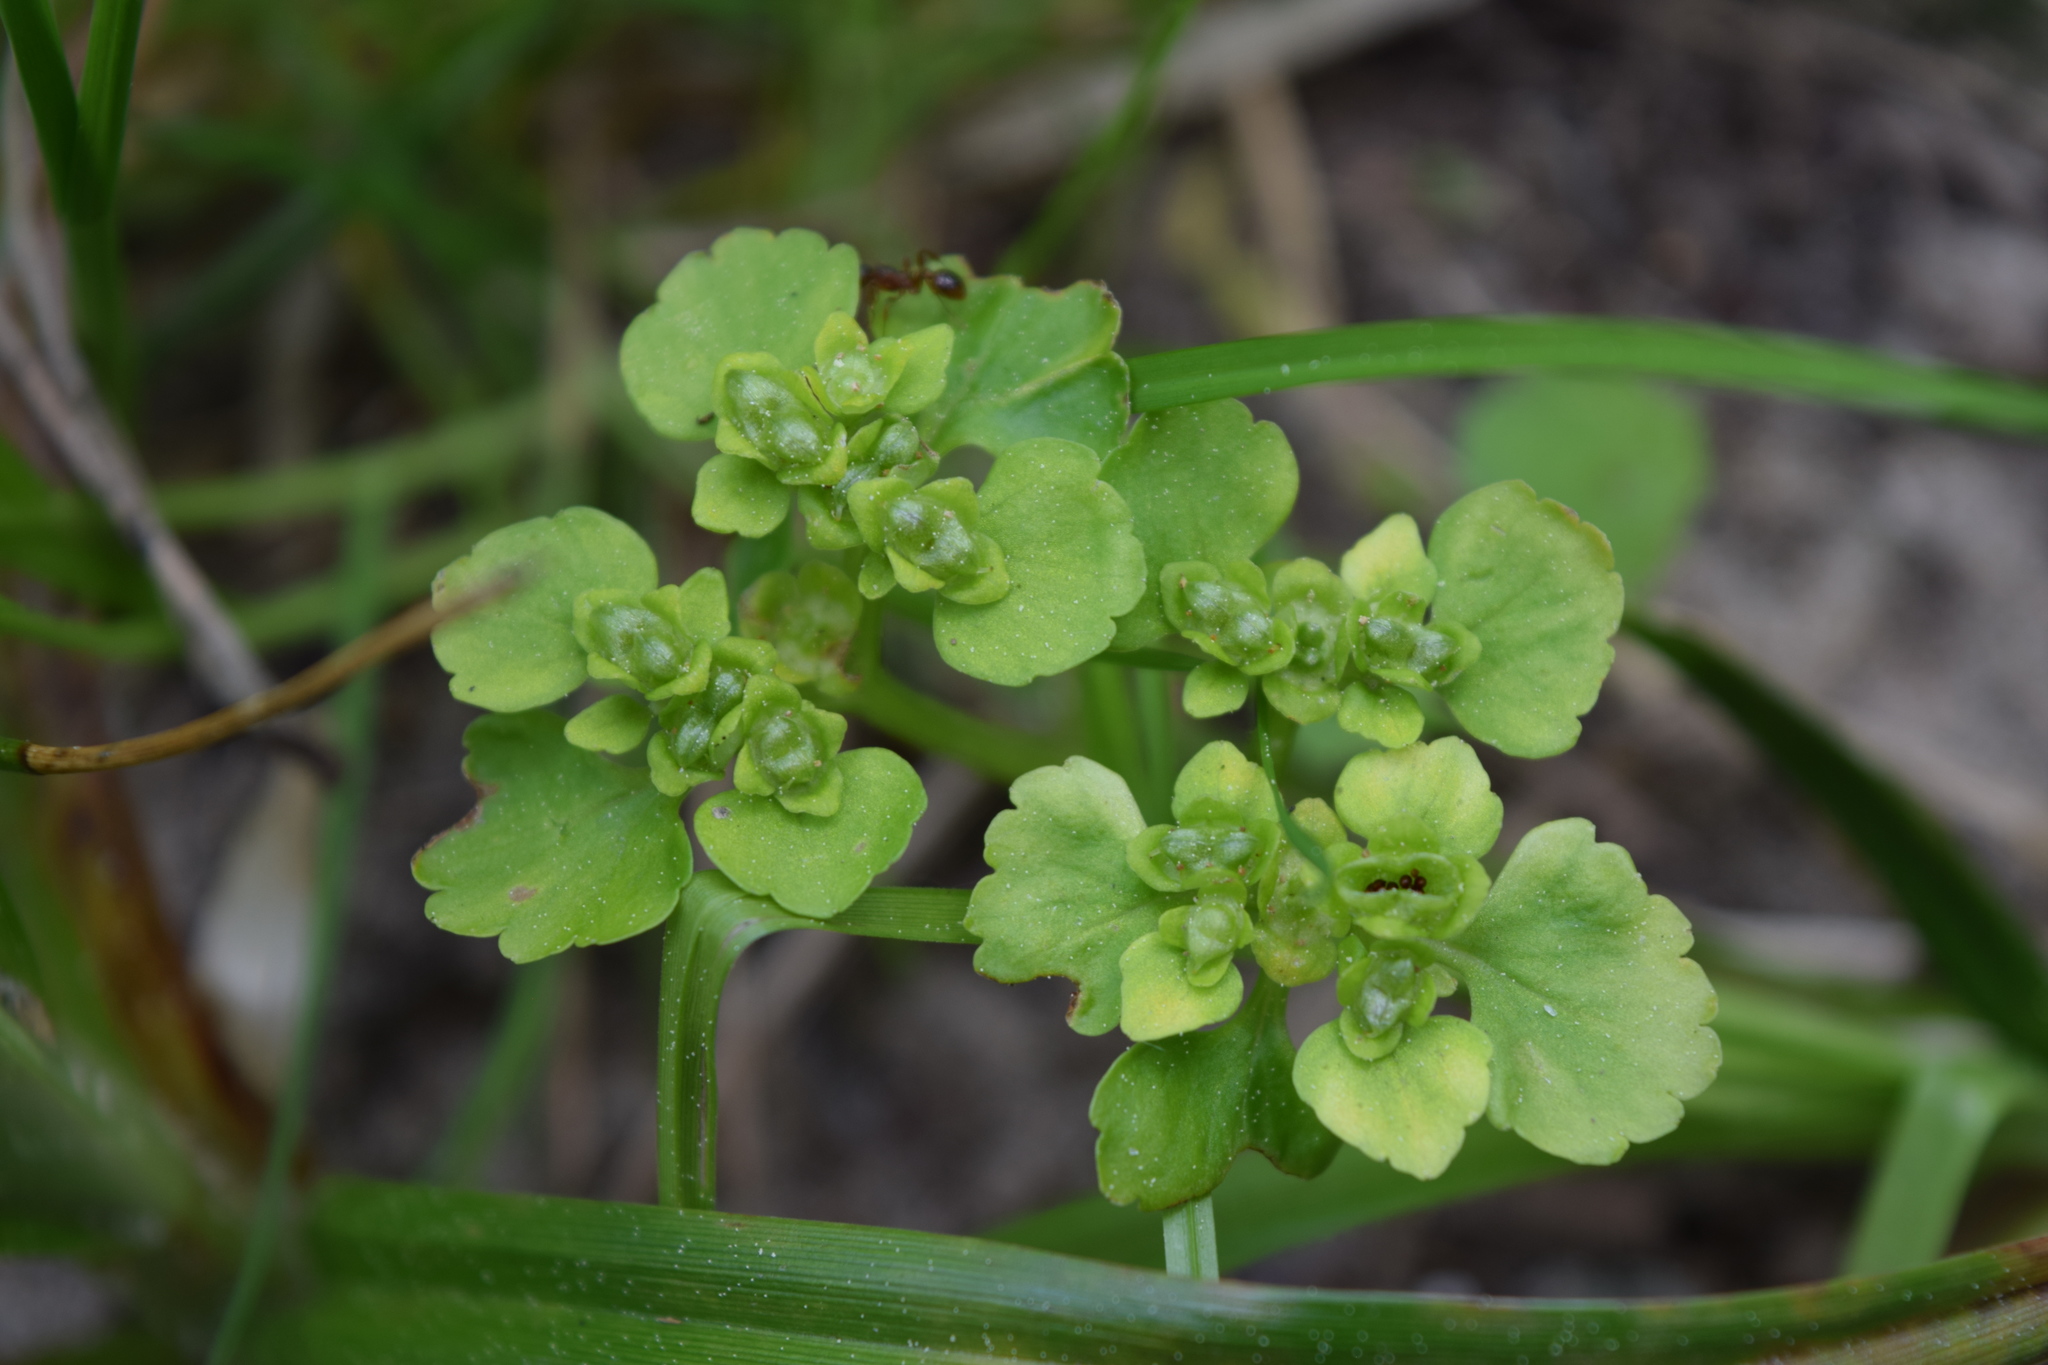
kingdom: Plantae
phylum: Tracheophyta
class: Magnoliopsida
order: Saxifragales
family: Saxifragaceae
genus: Chrysosplenium
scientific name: Chrysosplenium alternifolium
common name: Alternate-leaved golden-saxifrage
